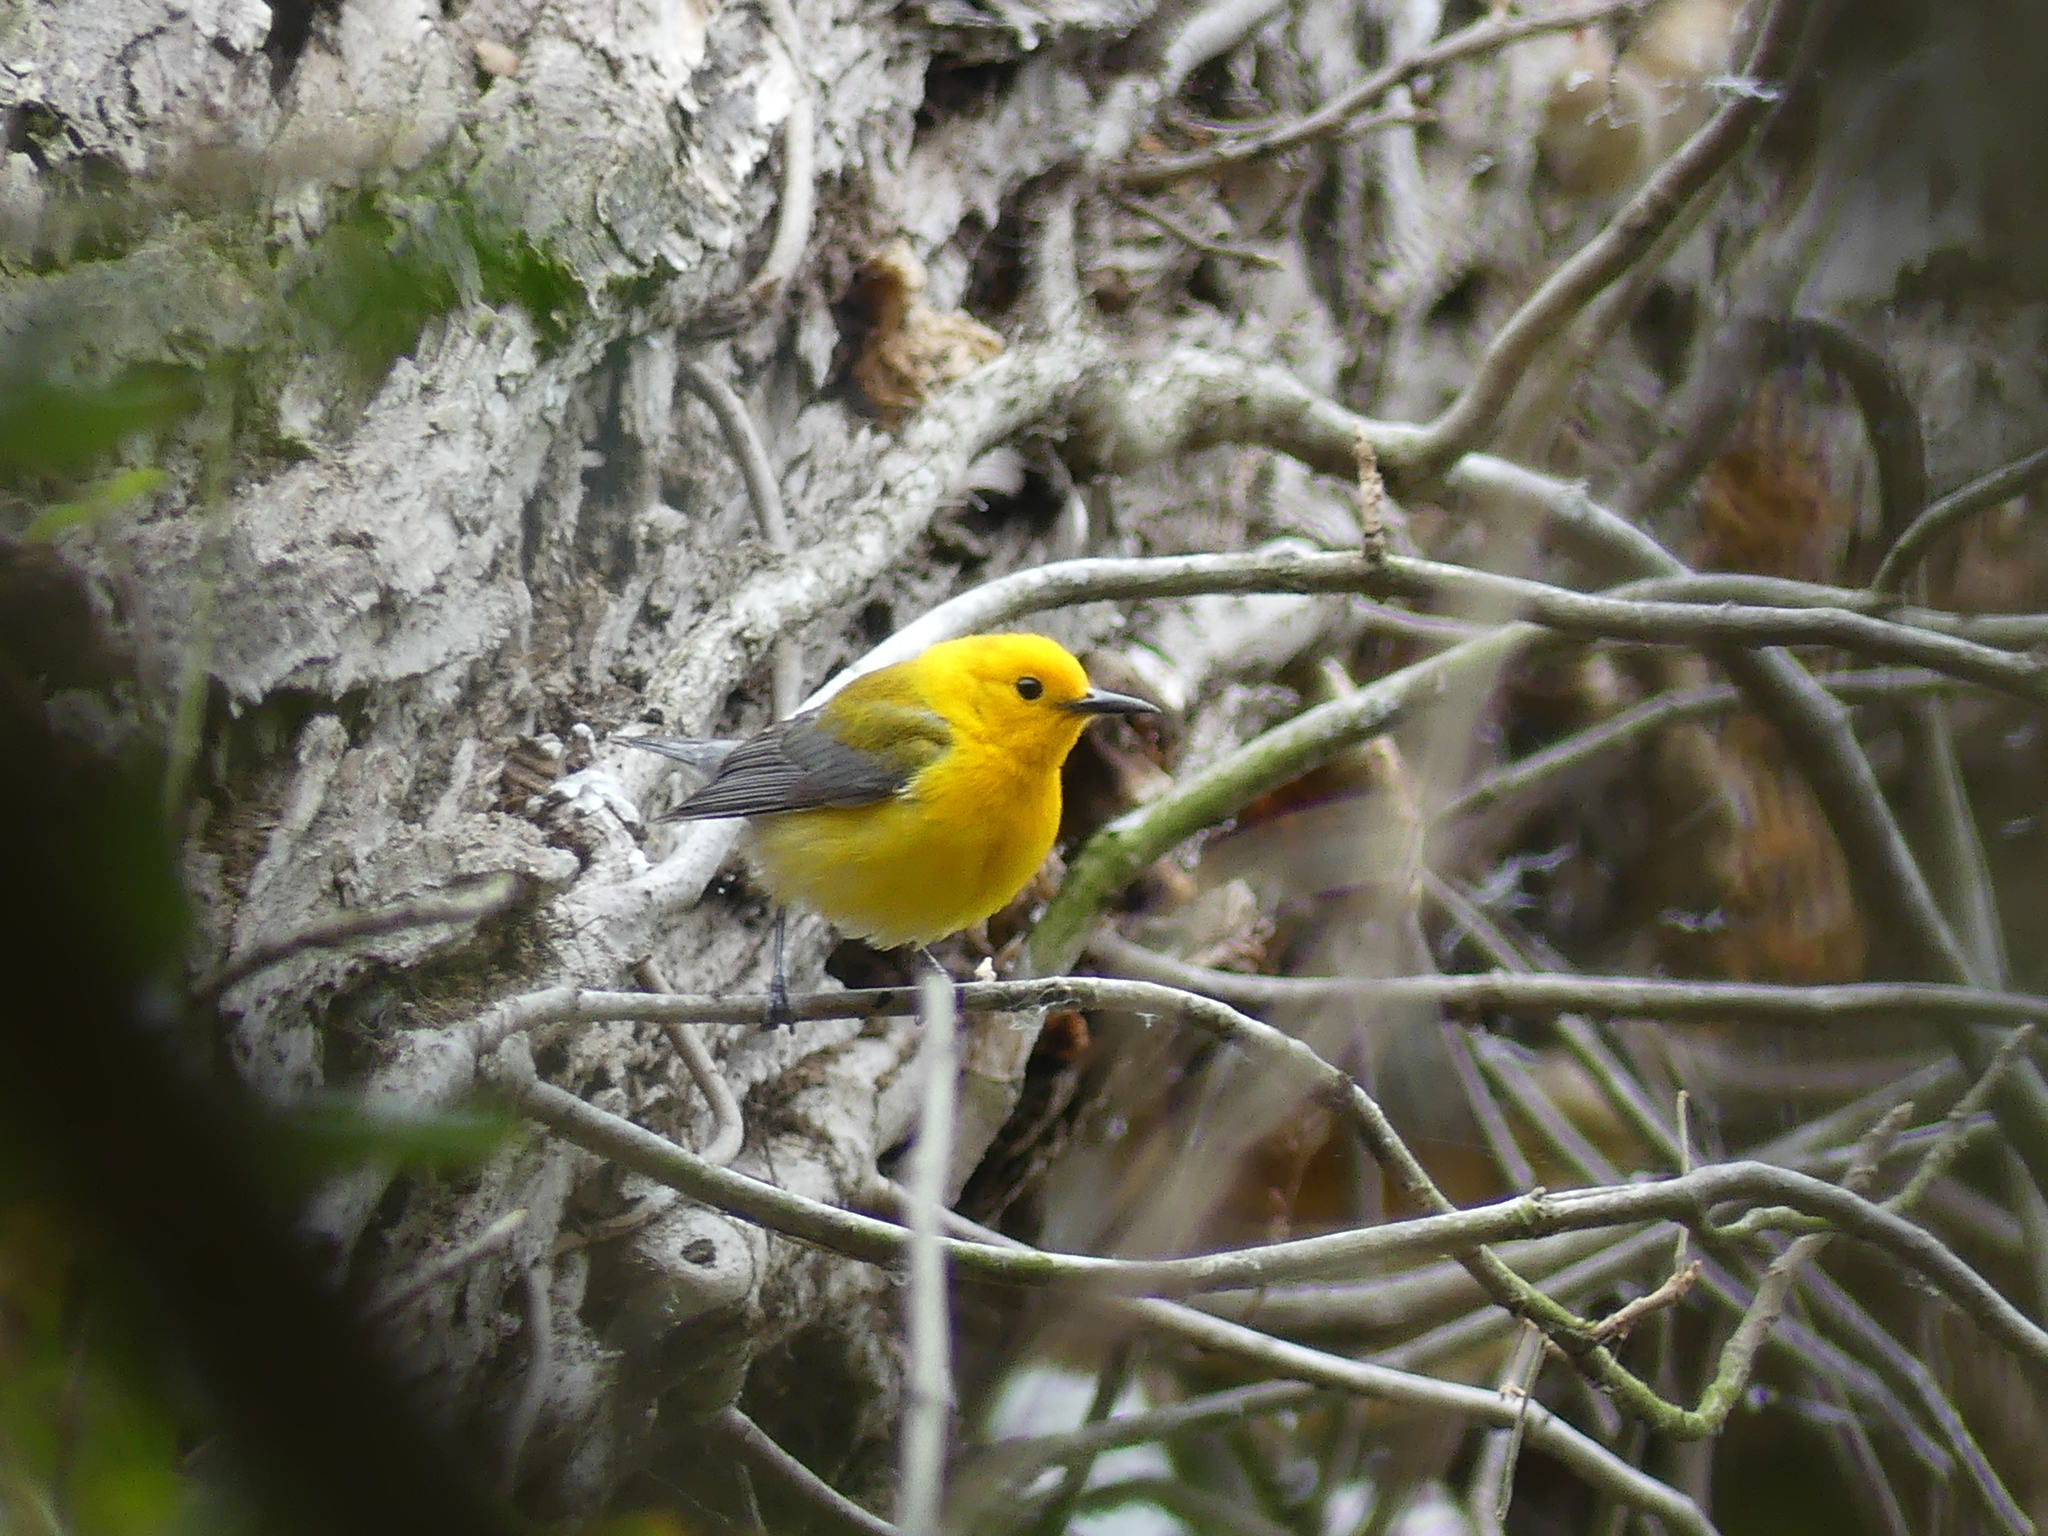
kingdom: Animalia
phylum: Chordata
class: Aves
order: Passeriformes
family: Parulidae
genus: Protonotaria
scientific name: Protonotaria citrea
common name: Prothonotary warbler
